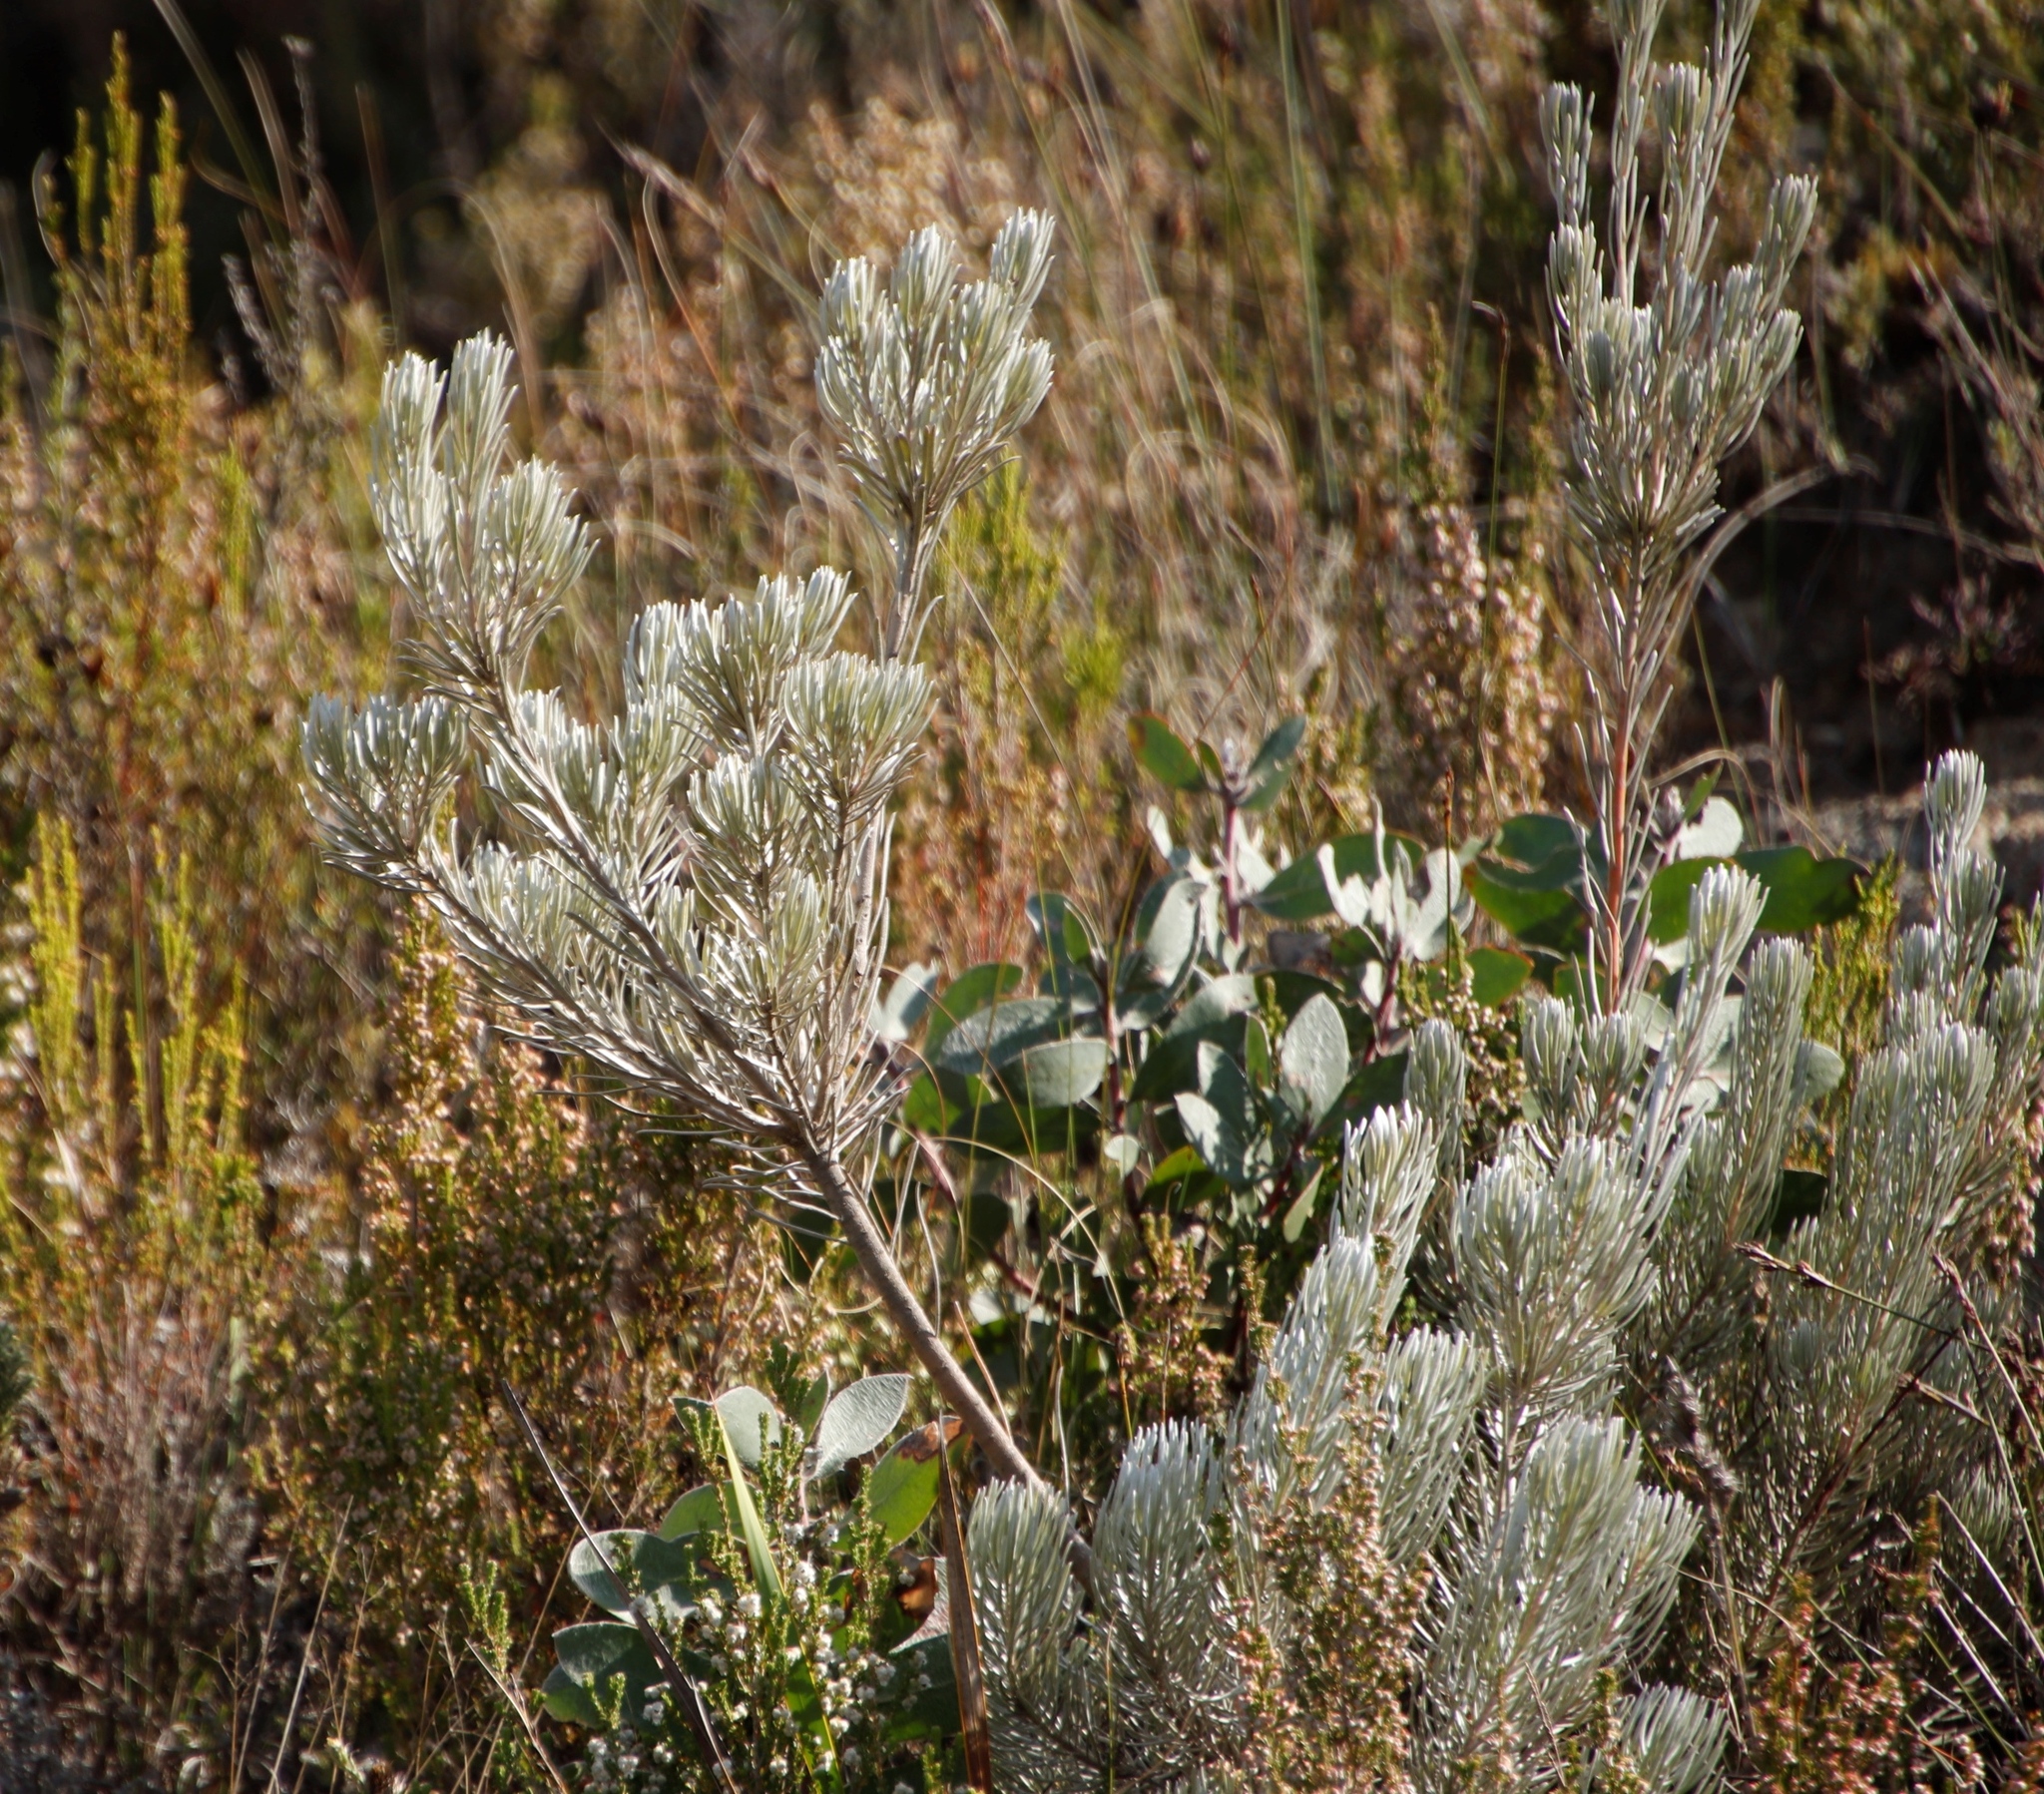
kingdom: Plantae
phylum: Tracheophyta
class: Magnoliopsida
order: Proteales
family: Proteaceae
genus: Leucadendron
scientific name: Leucadendron album
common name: Linear-leaf conebush
